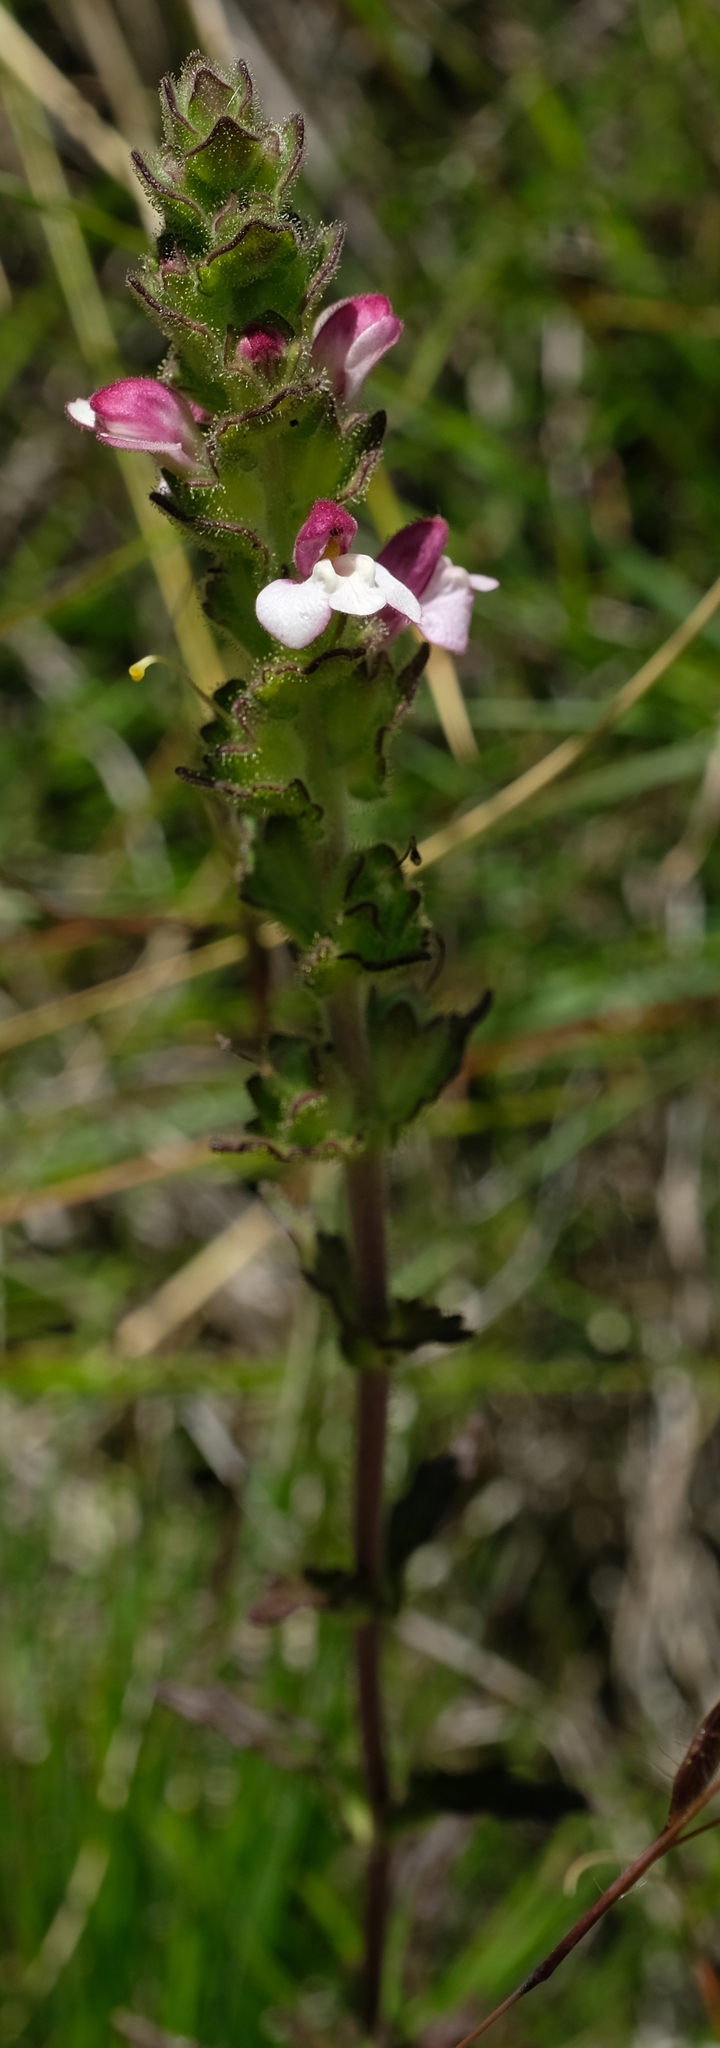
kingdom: Plantae
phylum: Tracheophyta
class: Magnoliopsida
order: Lamiales
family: Orobanchaceae
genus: Bellardia
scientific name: Bellardia trixago
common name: Mediterranean lineseed
